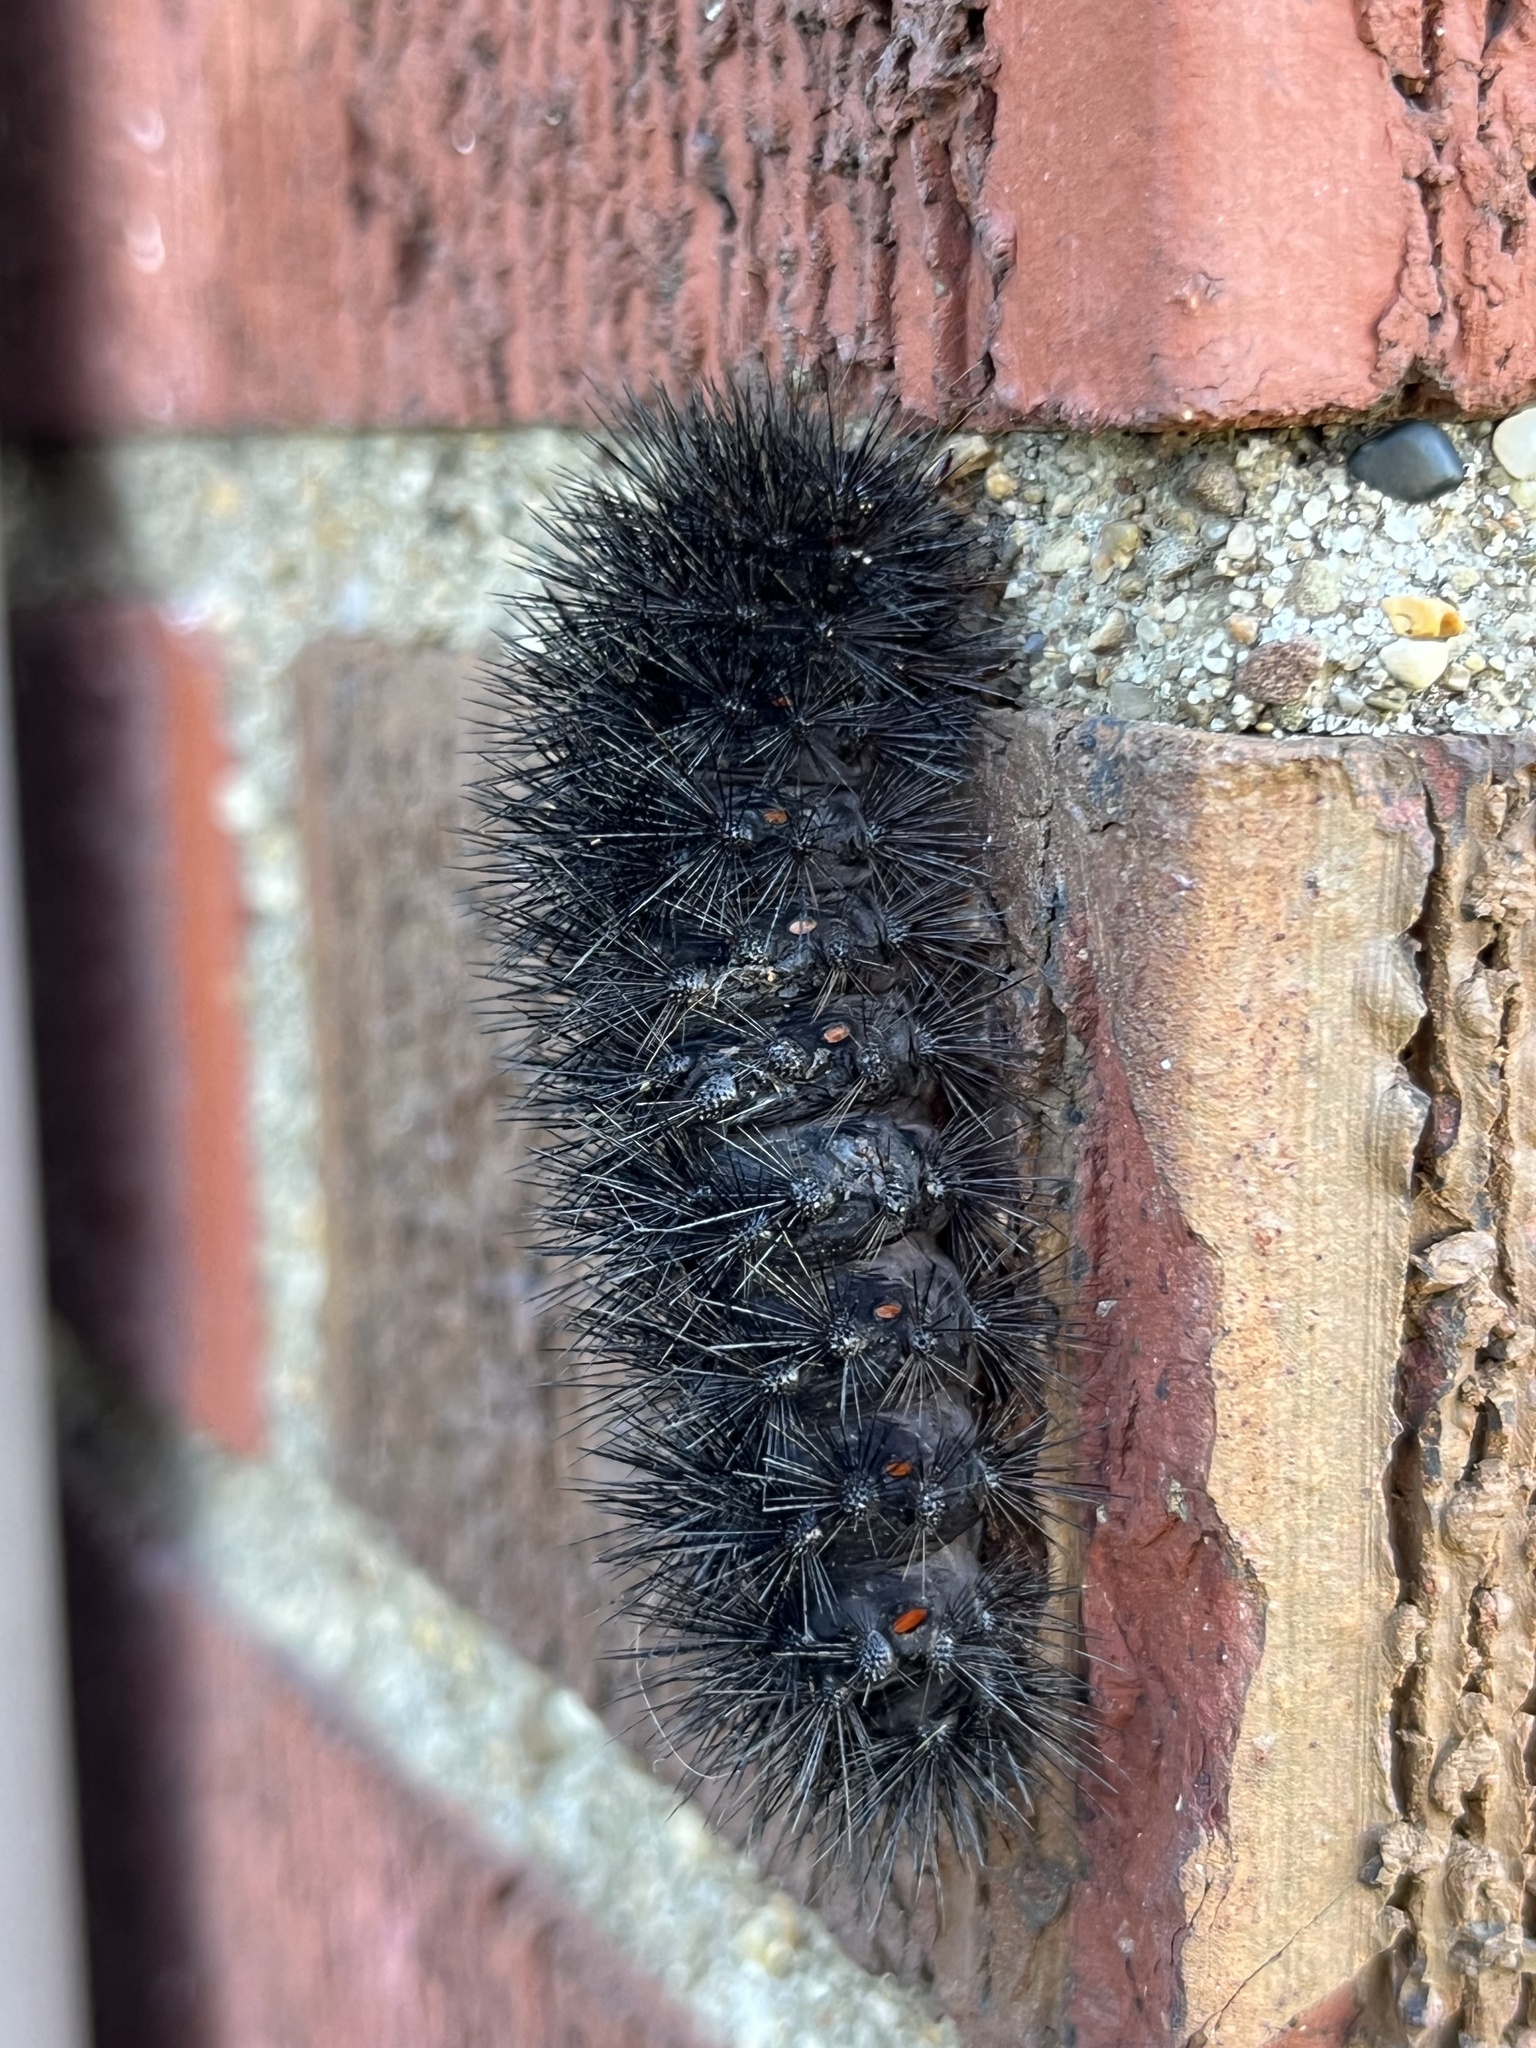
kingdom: Animalia
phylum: Arthropoda
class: Insecta
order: Lepidoptera
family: Erebidae
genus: Hypercompe
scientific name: Hypercompe scribonia
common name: Giant leopard moth
